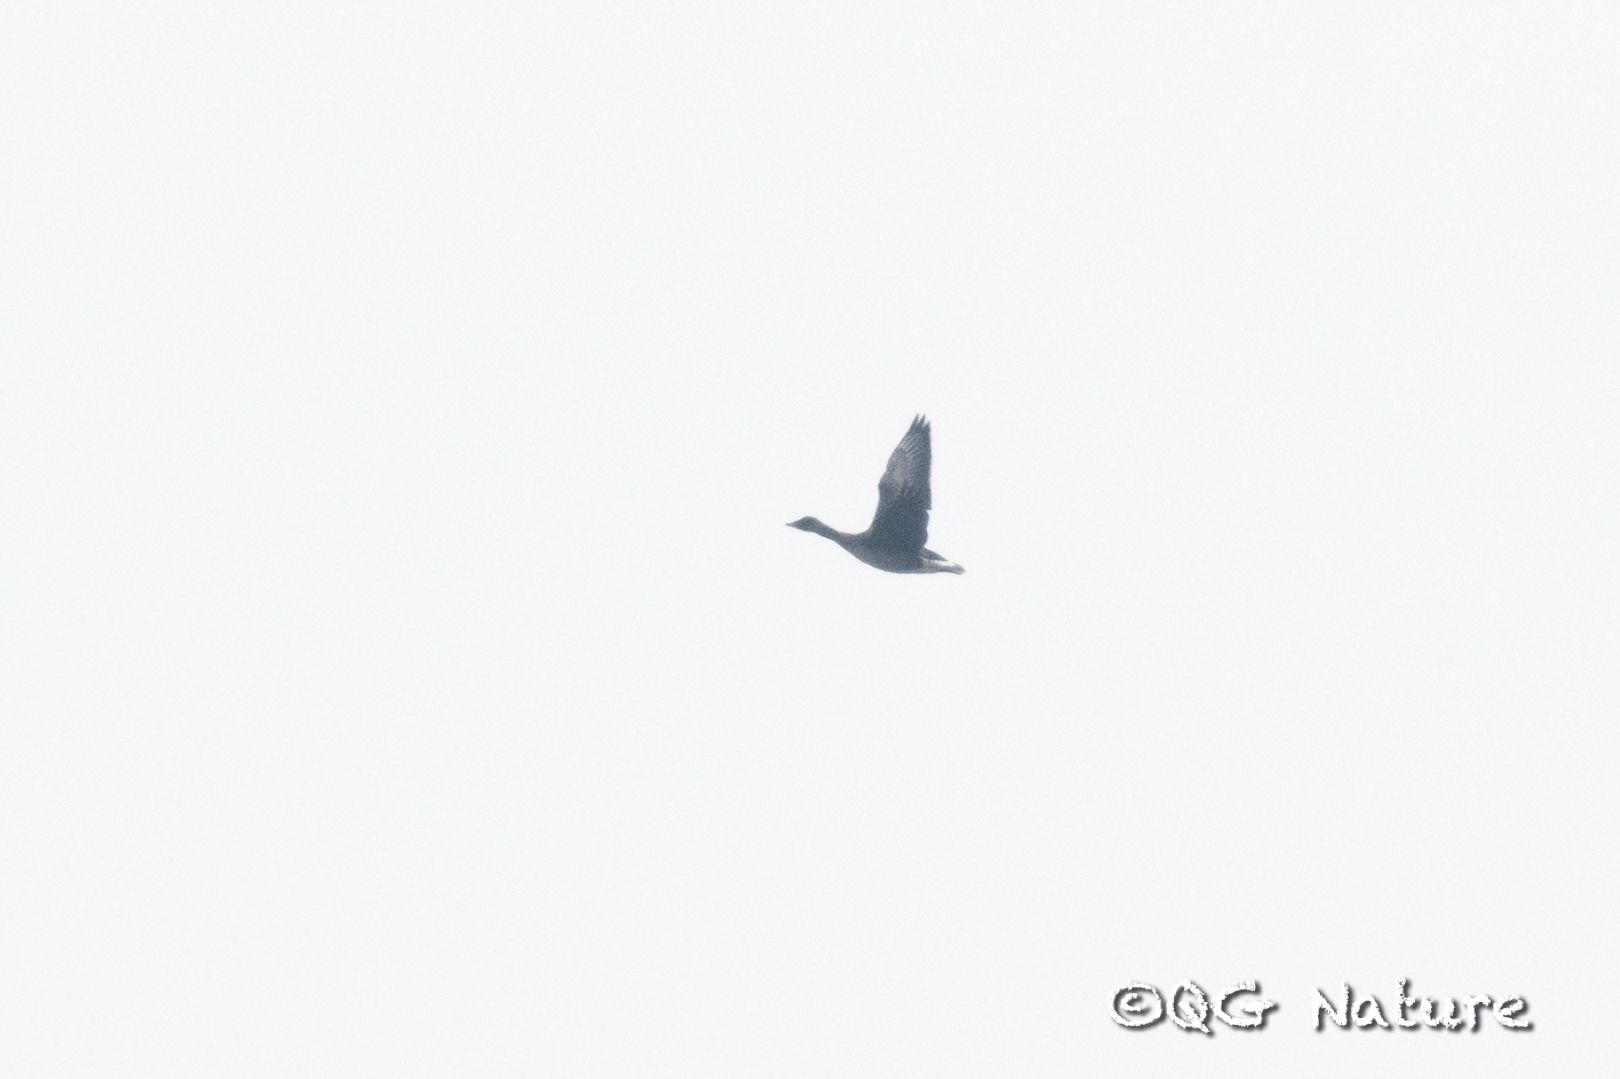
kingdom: Animalia
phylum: Chordata
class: Aves
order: Anseriformes
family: Anatidae
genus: Anser
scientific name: Anser serrirostris
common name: Tundra bean goose
